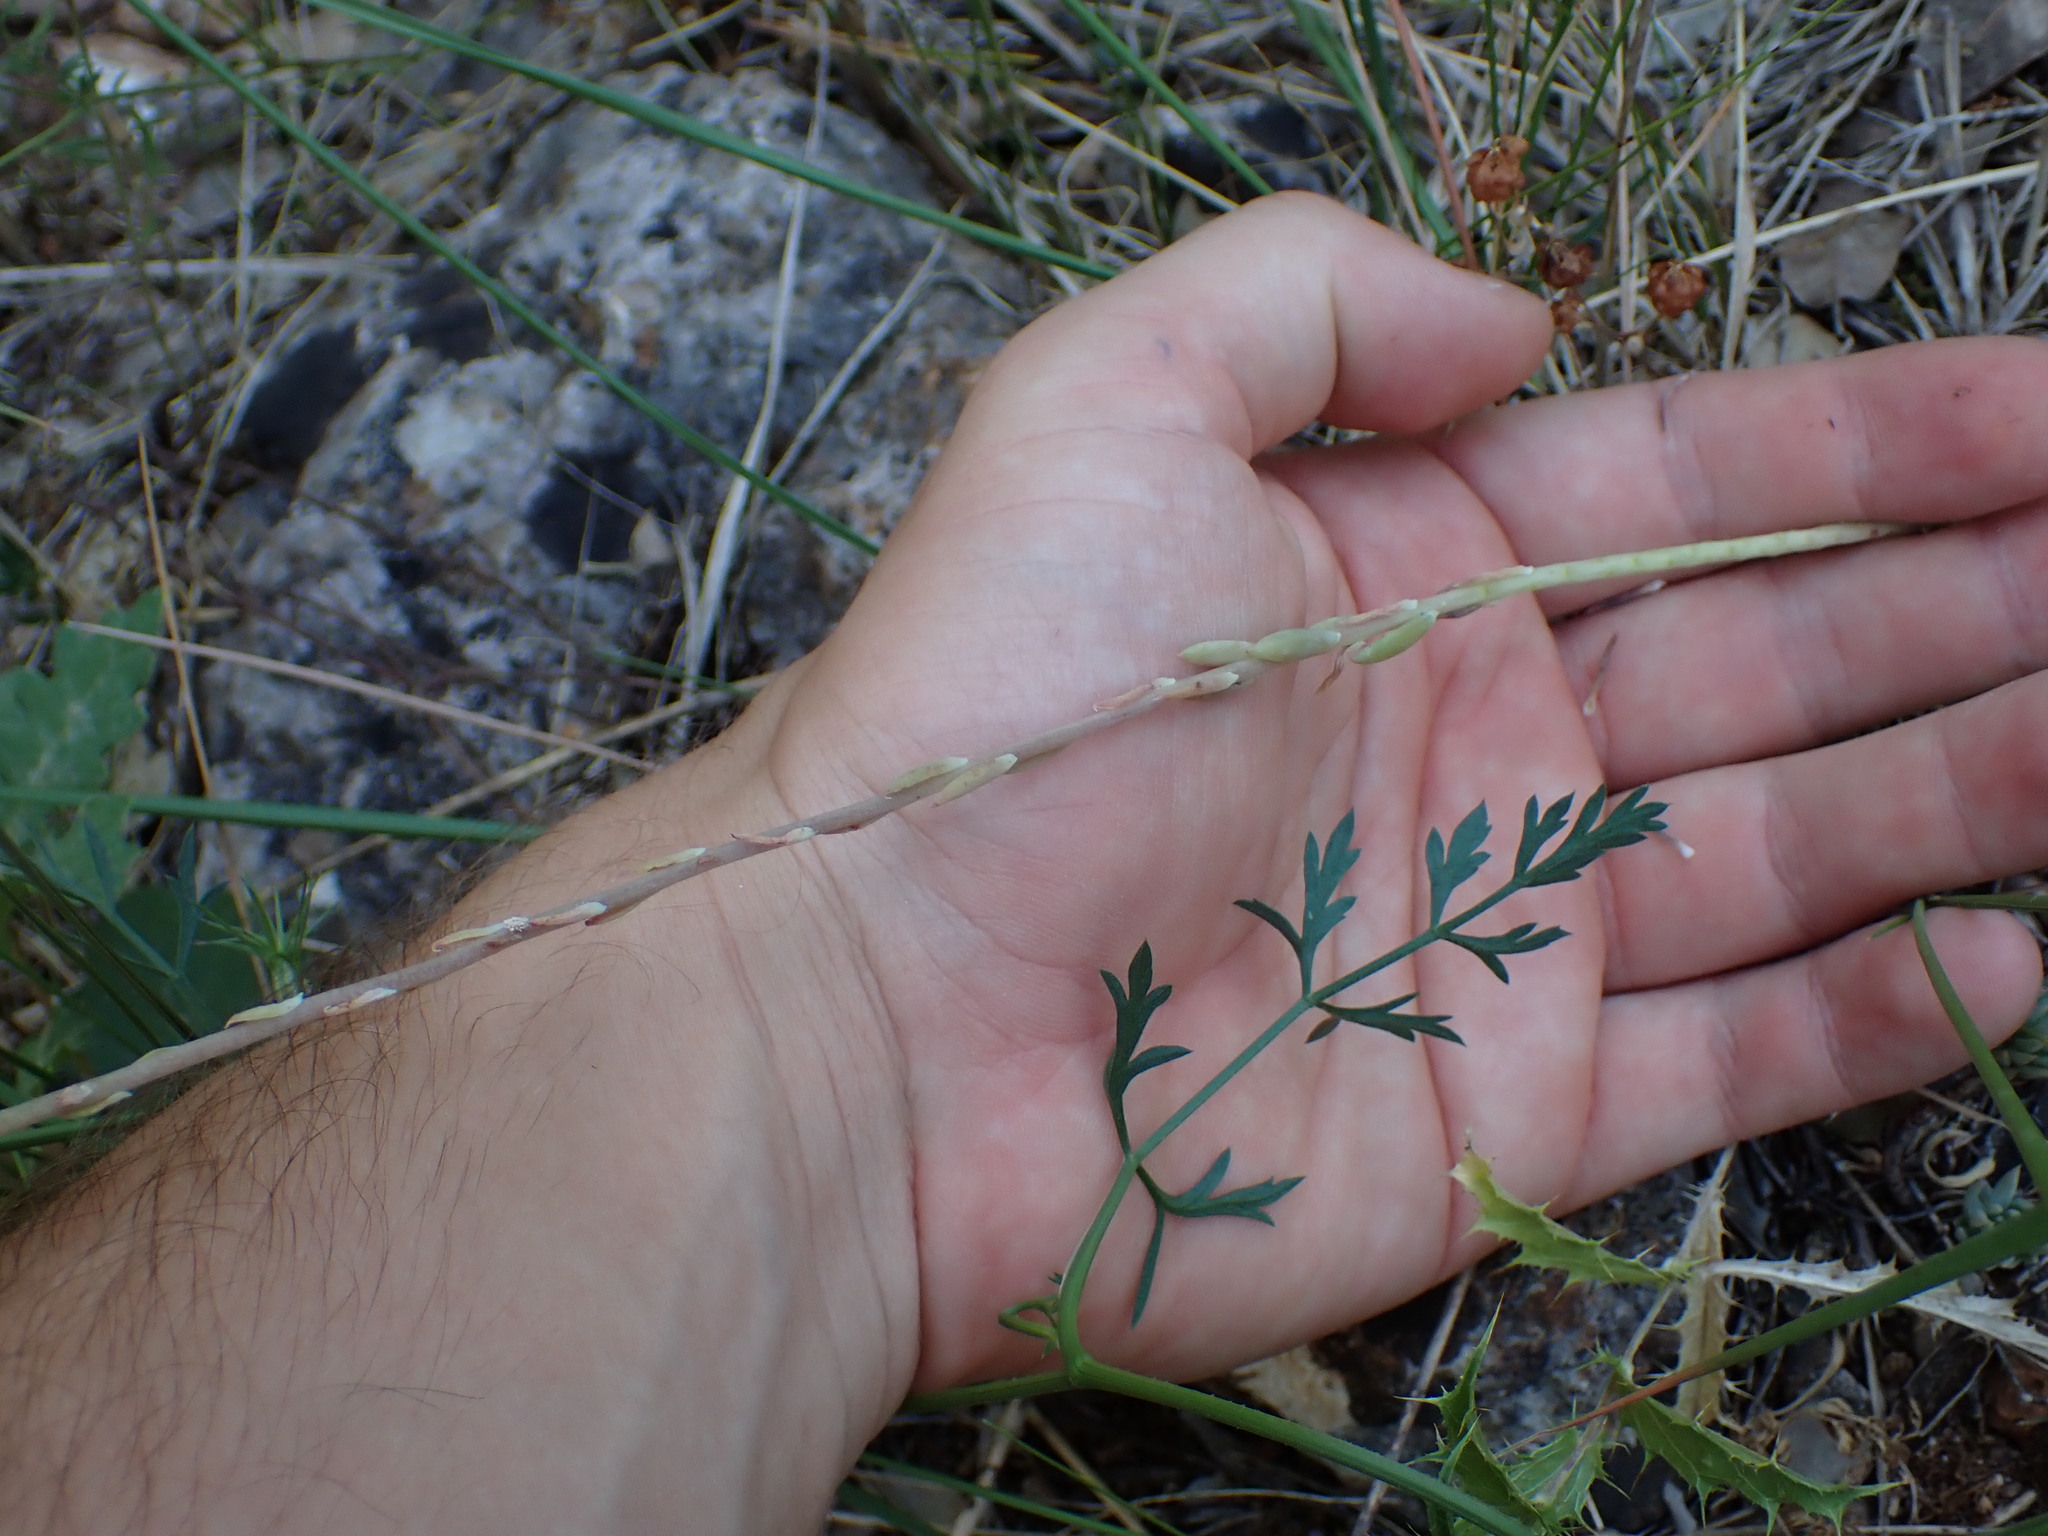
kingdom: Plantae
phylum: Tracheophyta
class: Magnoliopsida
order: Saxifragales
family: Crassulaceae
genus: Petrosedum
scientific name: Petrosedum sediforme
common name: Pale stonecrop
